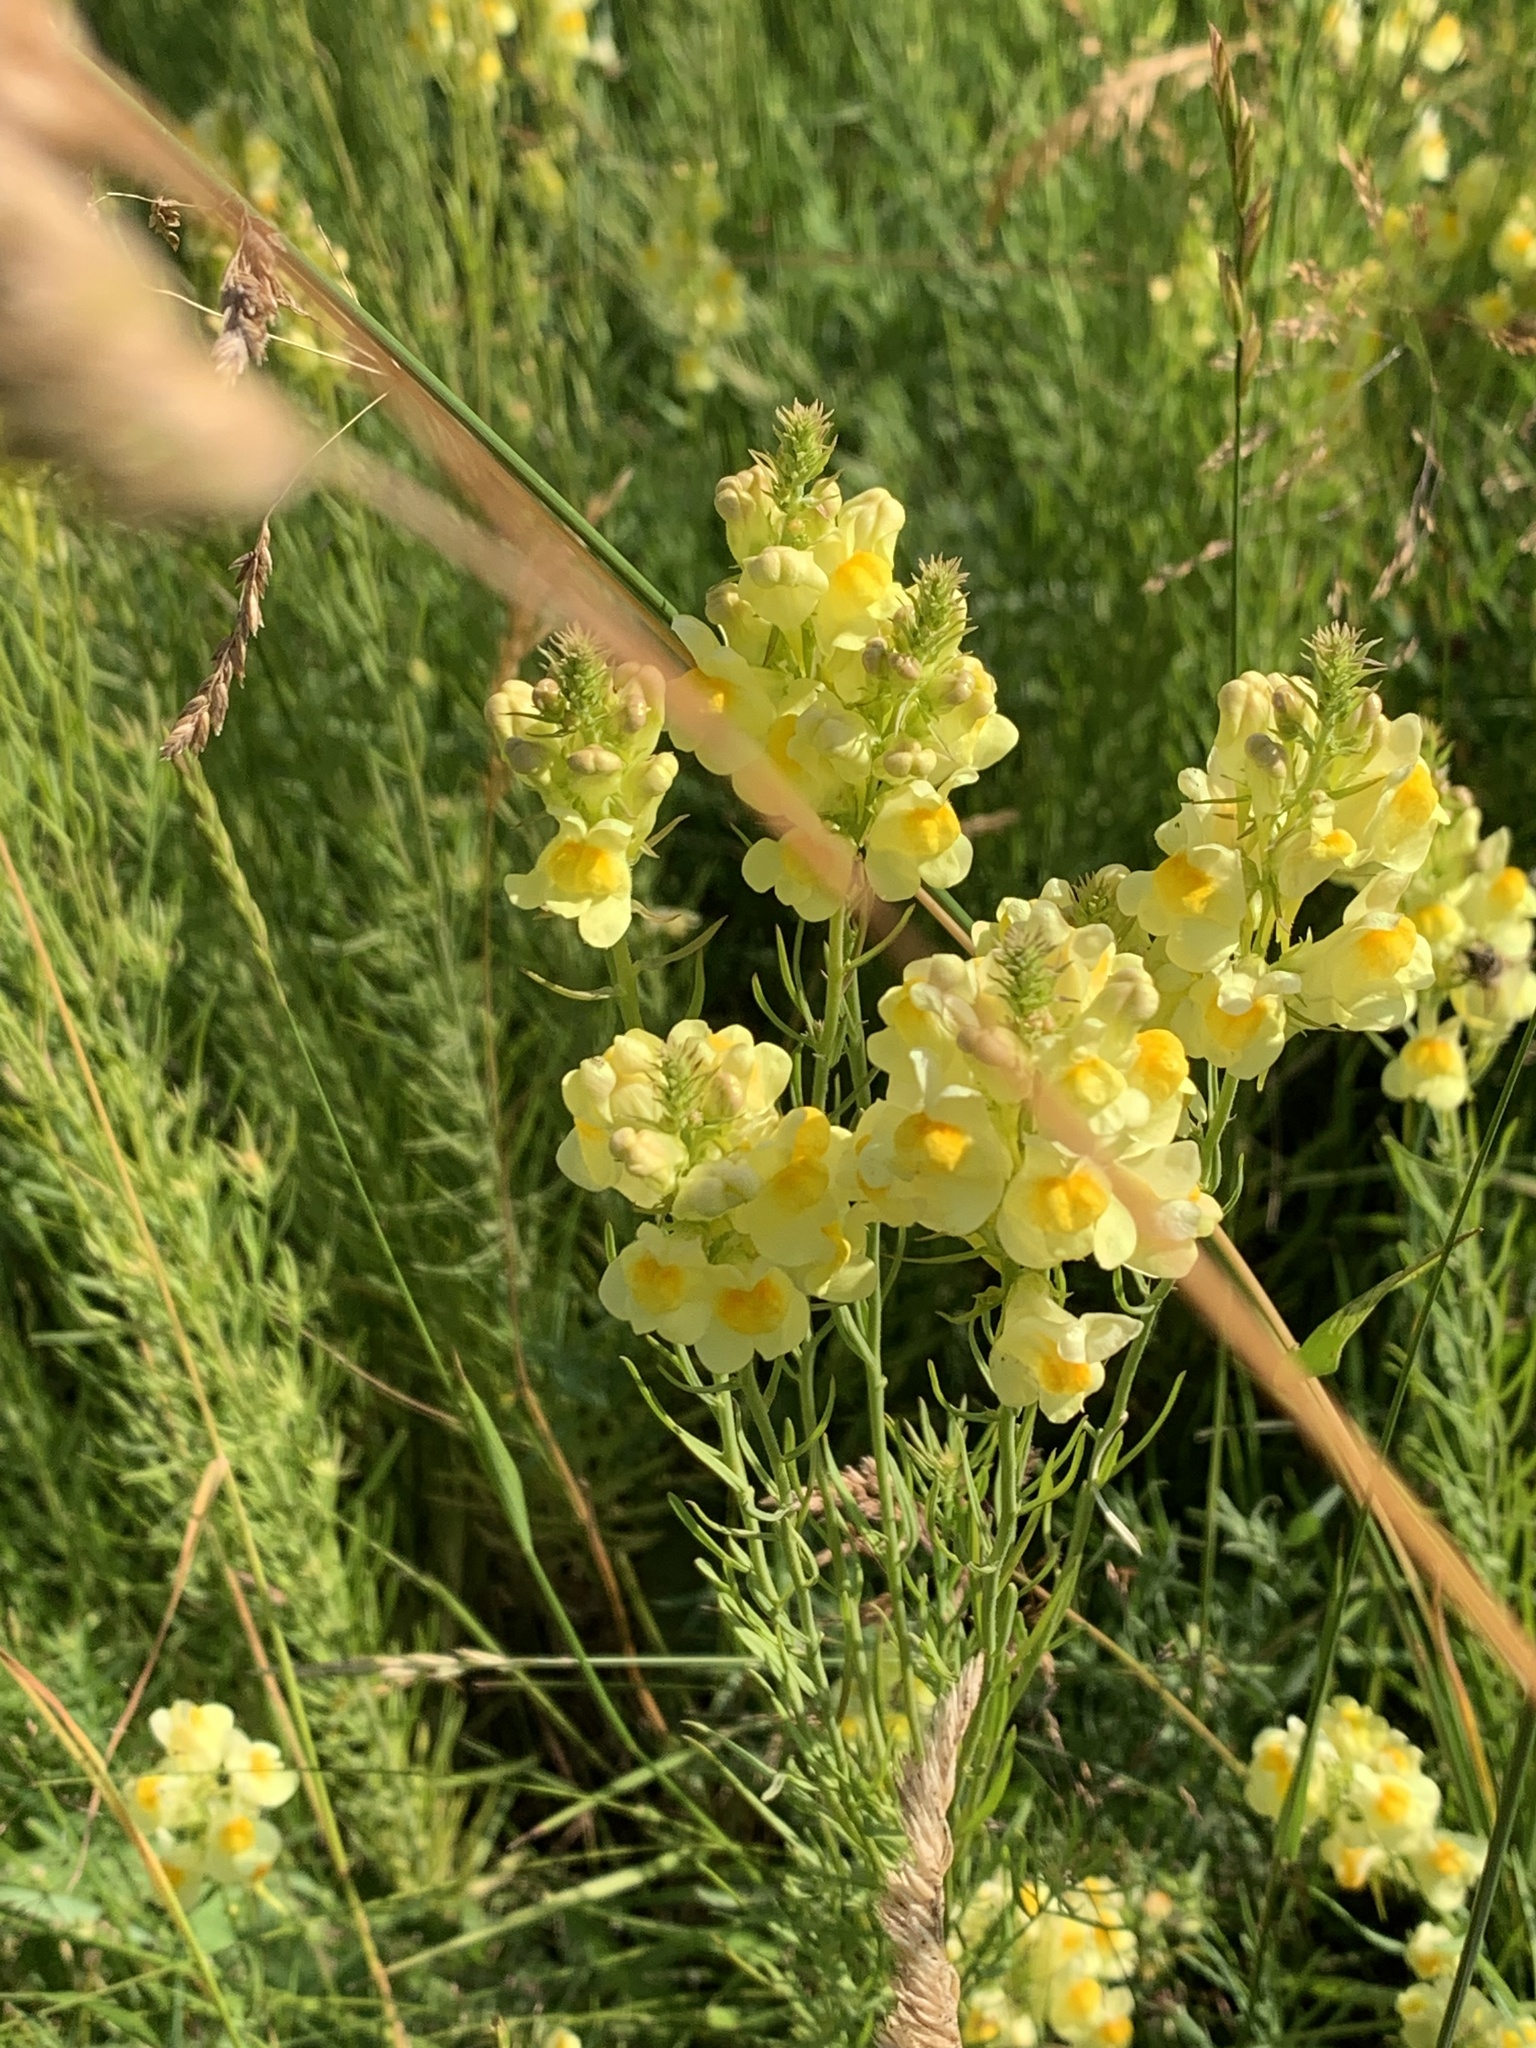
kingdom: Plantae
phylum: Tracheophyta
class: Magnoliopsida
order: Lamiales
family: Plantaginaceae
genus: Linaria
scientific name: Linaria vulgaris
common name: Butter and eggs
